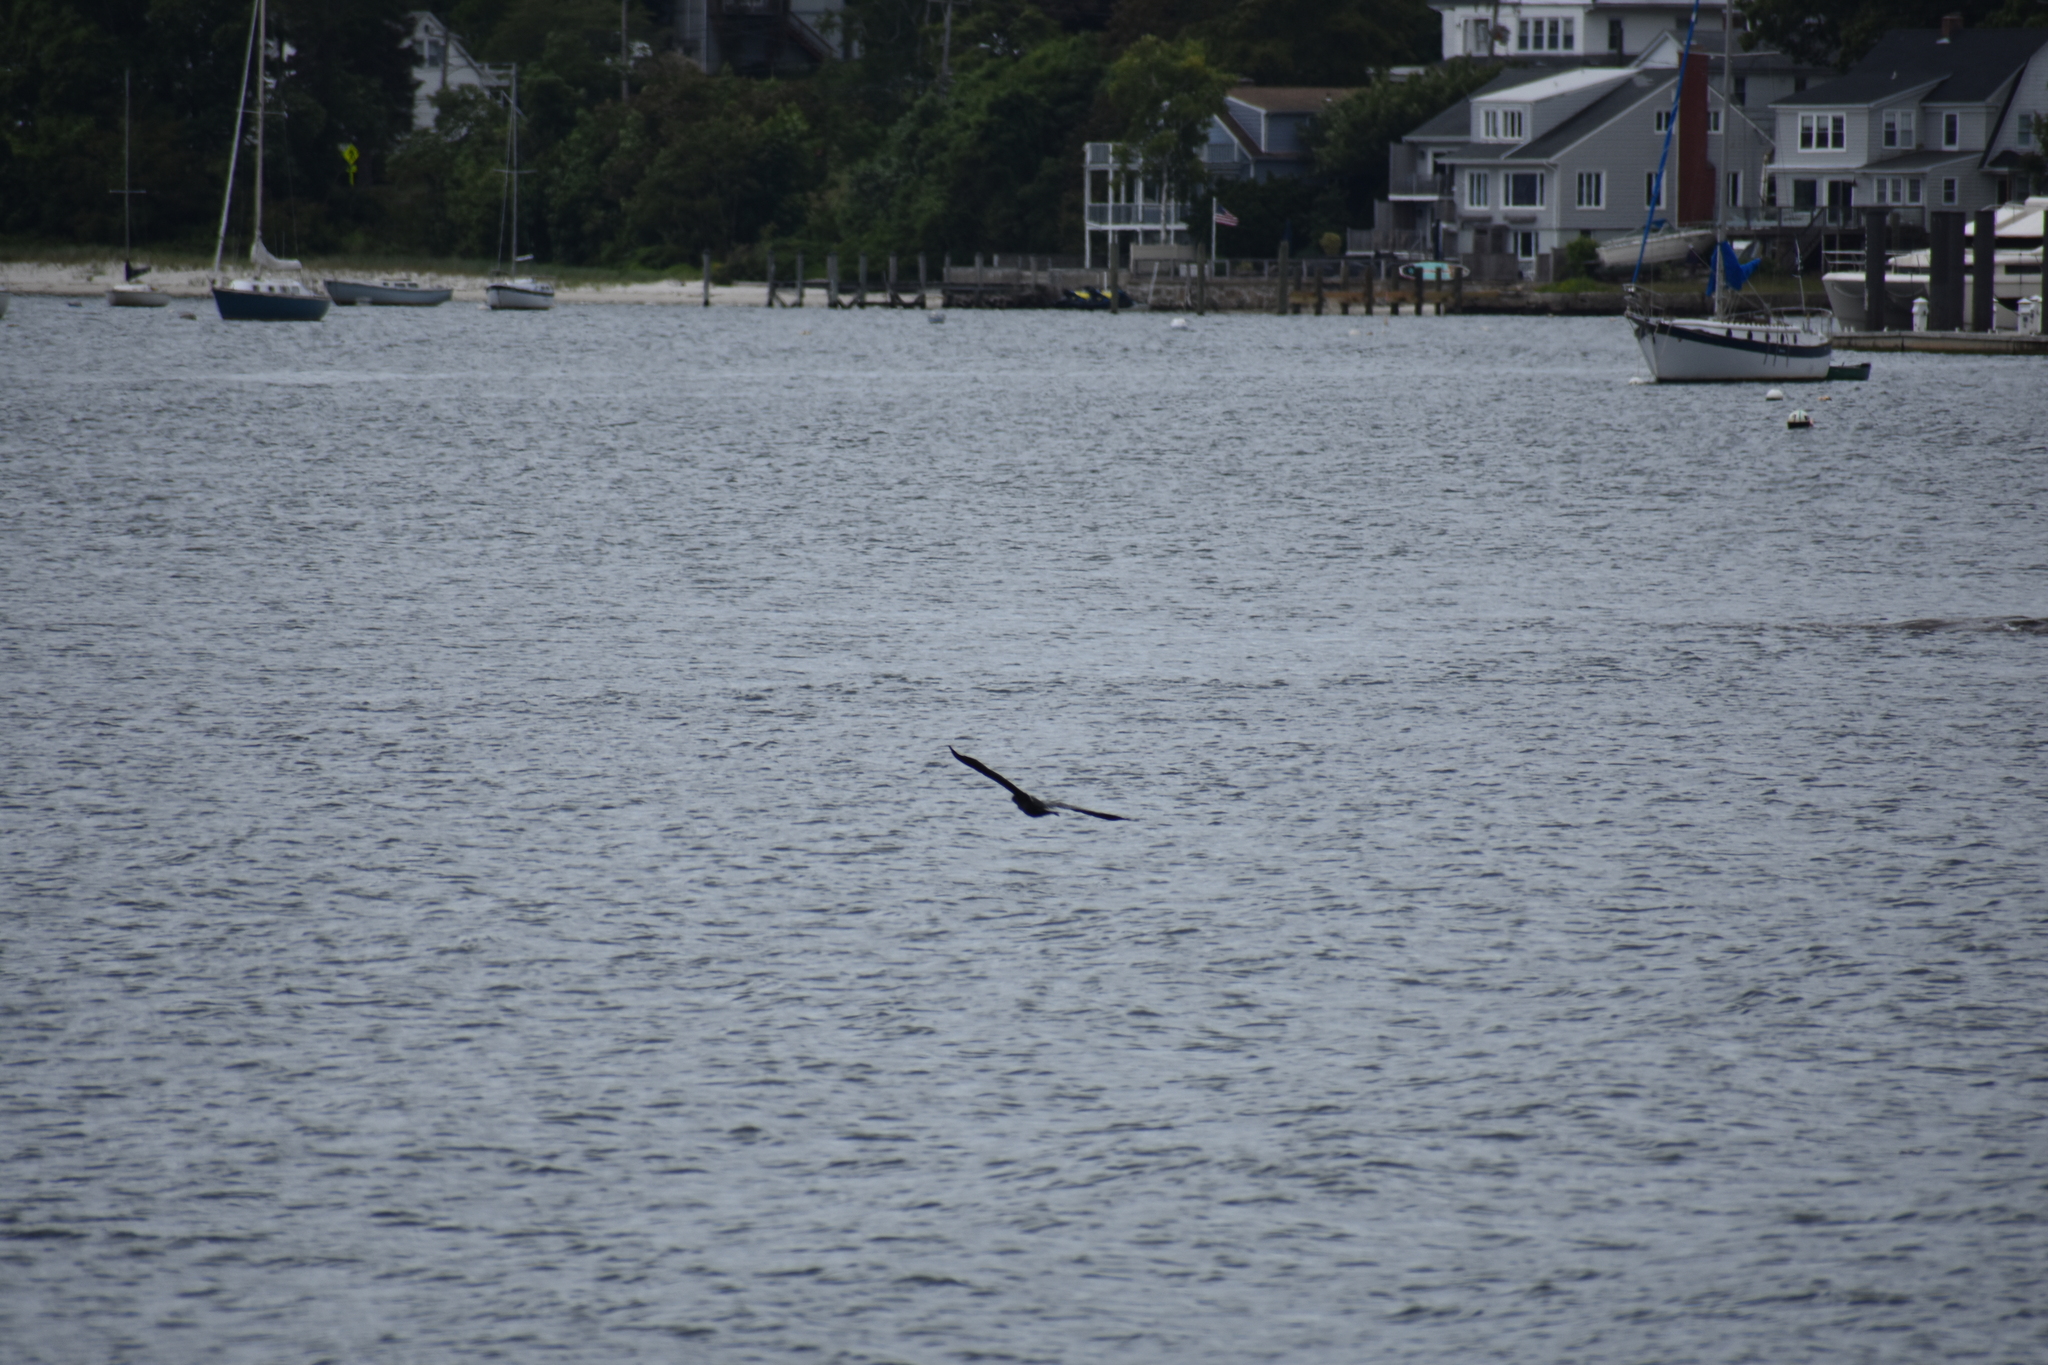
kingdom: Animalia
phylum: Chordata
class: Aves
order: Suliformes
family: Phalacrocoracidae
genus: Phalacrocorax
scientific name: Phalacrocorax auritus
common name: Double-crested cormorant
